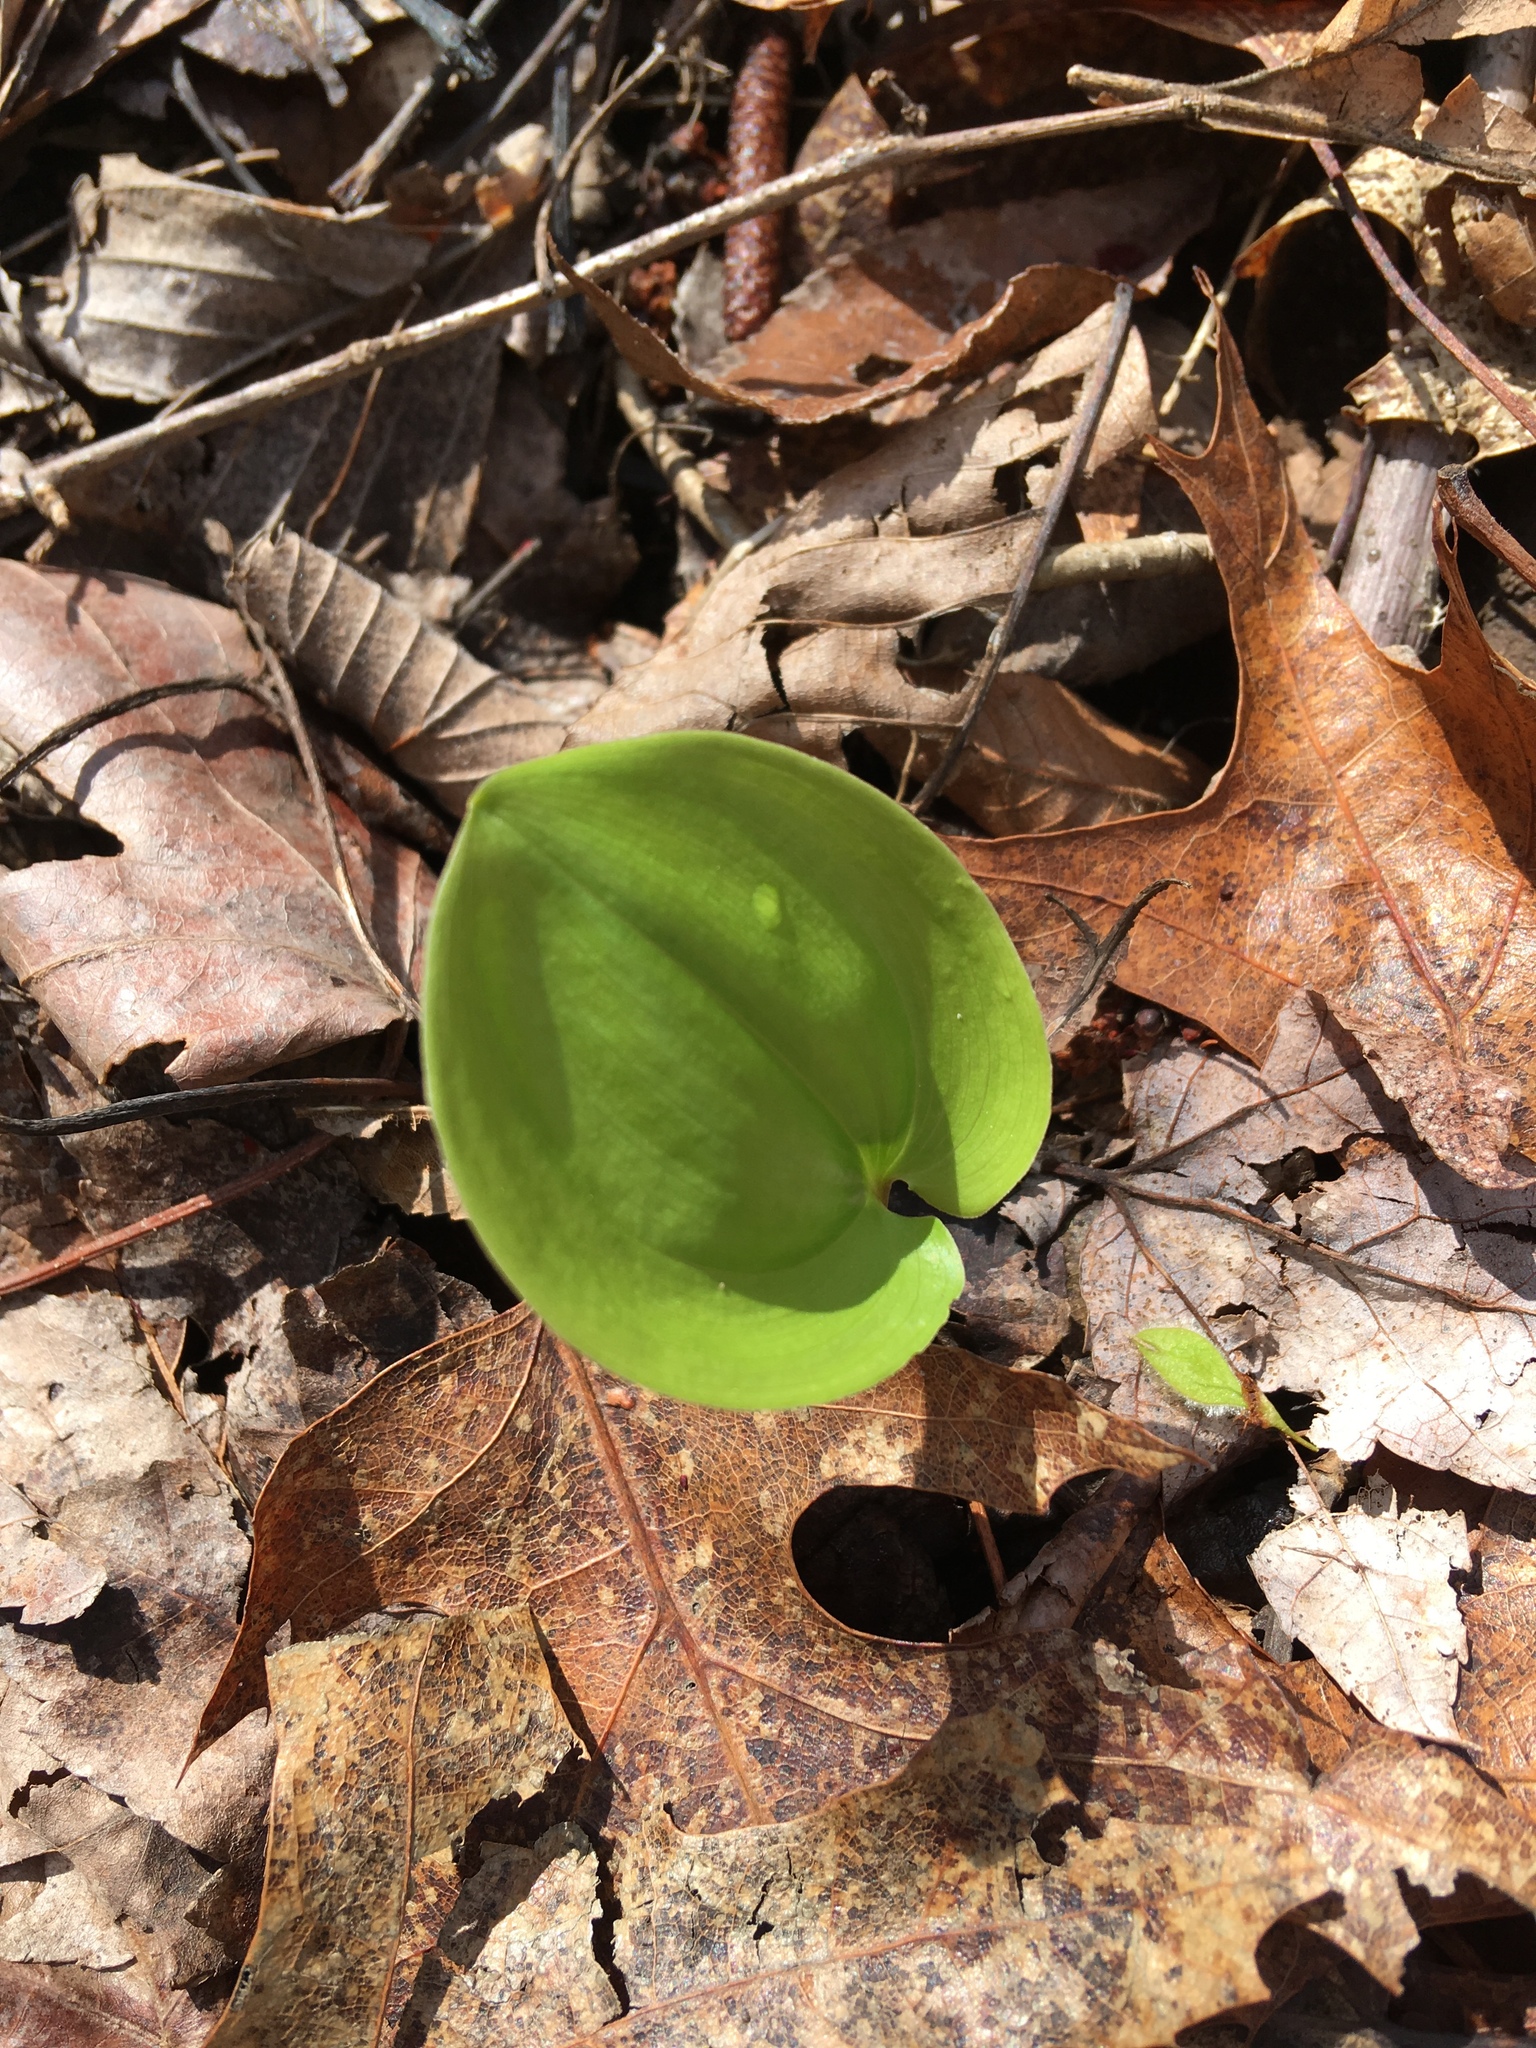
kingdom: Plantae
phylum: Tracheophyta
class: Liliopsida
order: Asparagales
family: Asparagaceae
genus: Maianthemum
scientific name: Maianthemum canadense
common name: False lily-of-the-valley
